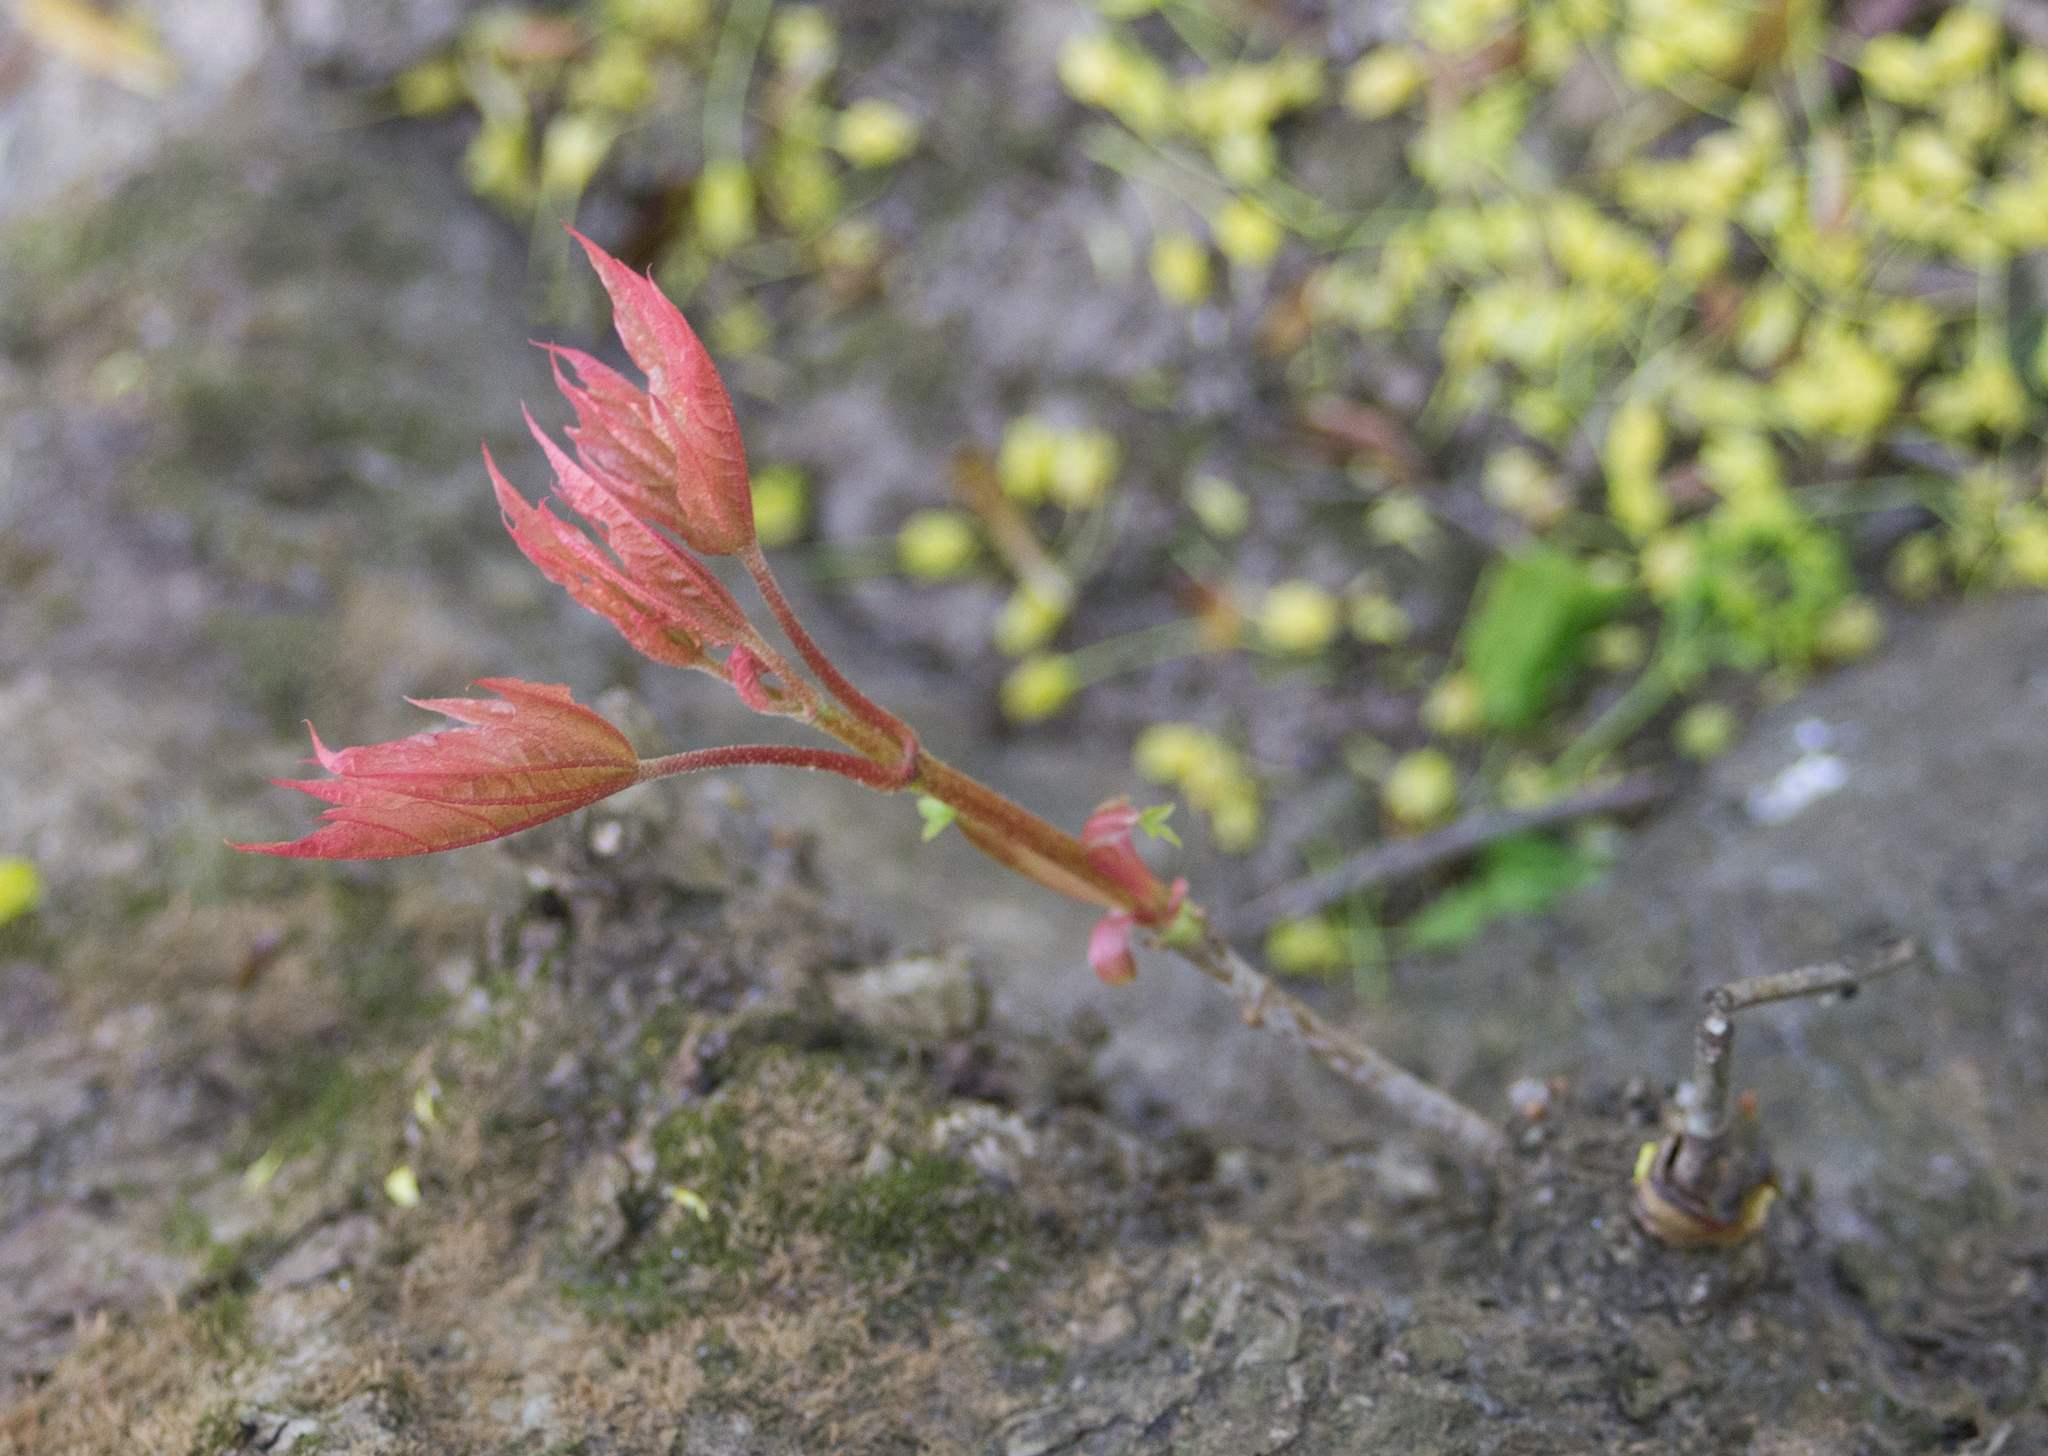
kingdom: Plantae
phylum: Tracheophyta
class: Magnoliopsida
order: Sapindales
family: Sapindaceae
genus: Acer
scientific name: Acer platanoides
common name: Norway maple
